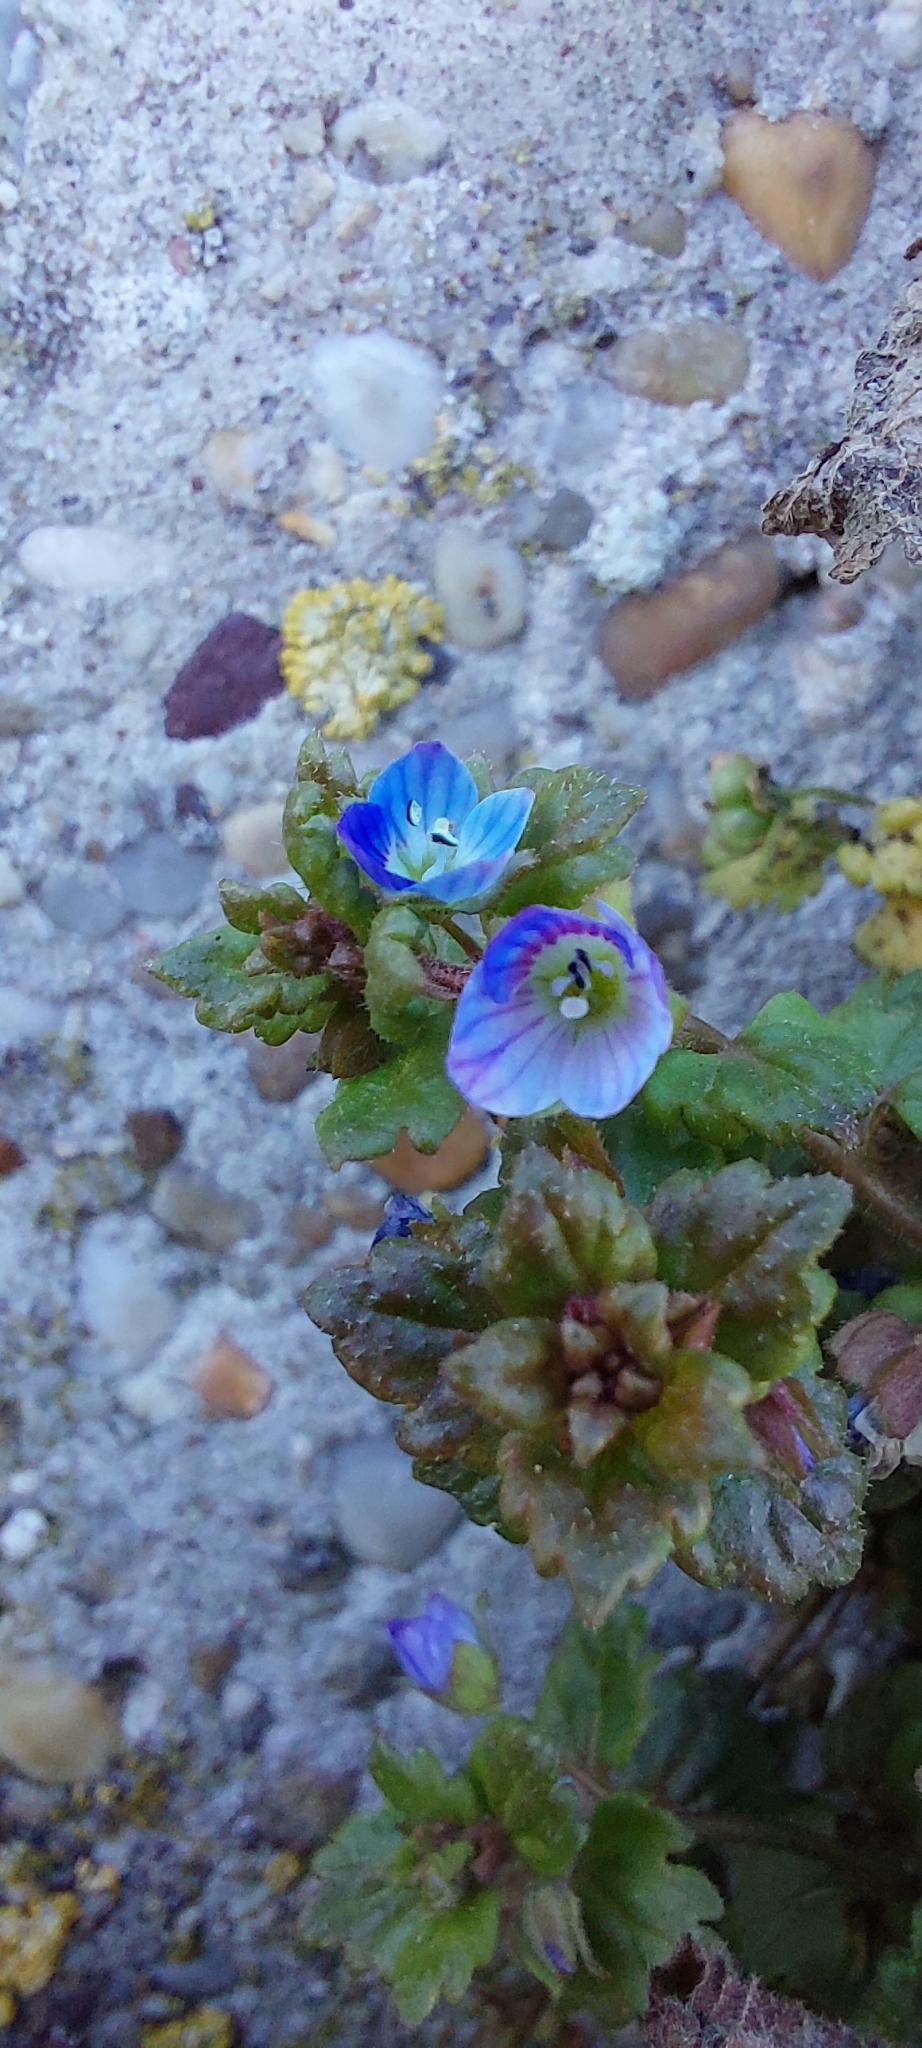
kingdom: Plantae
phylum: Tracheophyta
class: Magnoliopsida
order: Lamiales
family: Plantaginaceae
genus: Veronica
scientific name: Veronica persica
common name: Common field-speedwell
